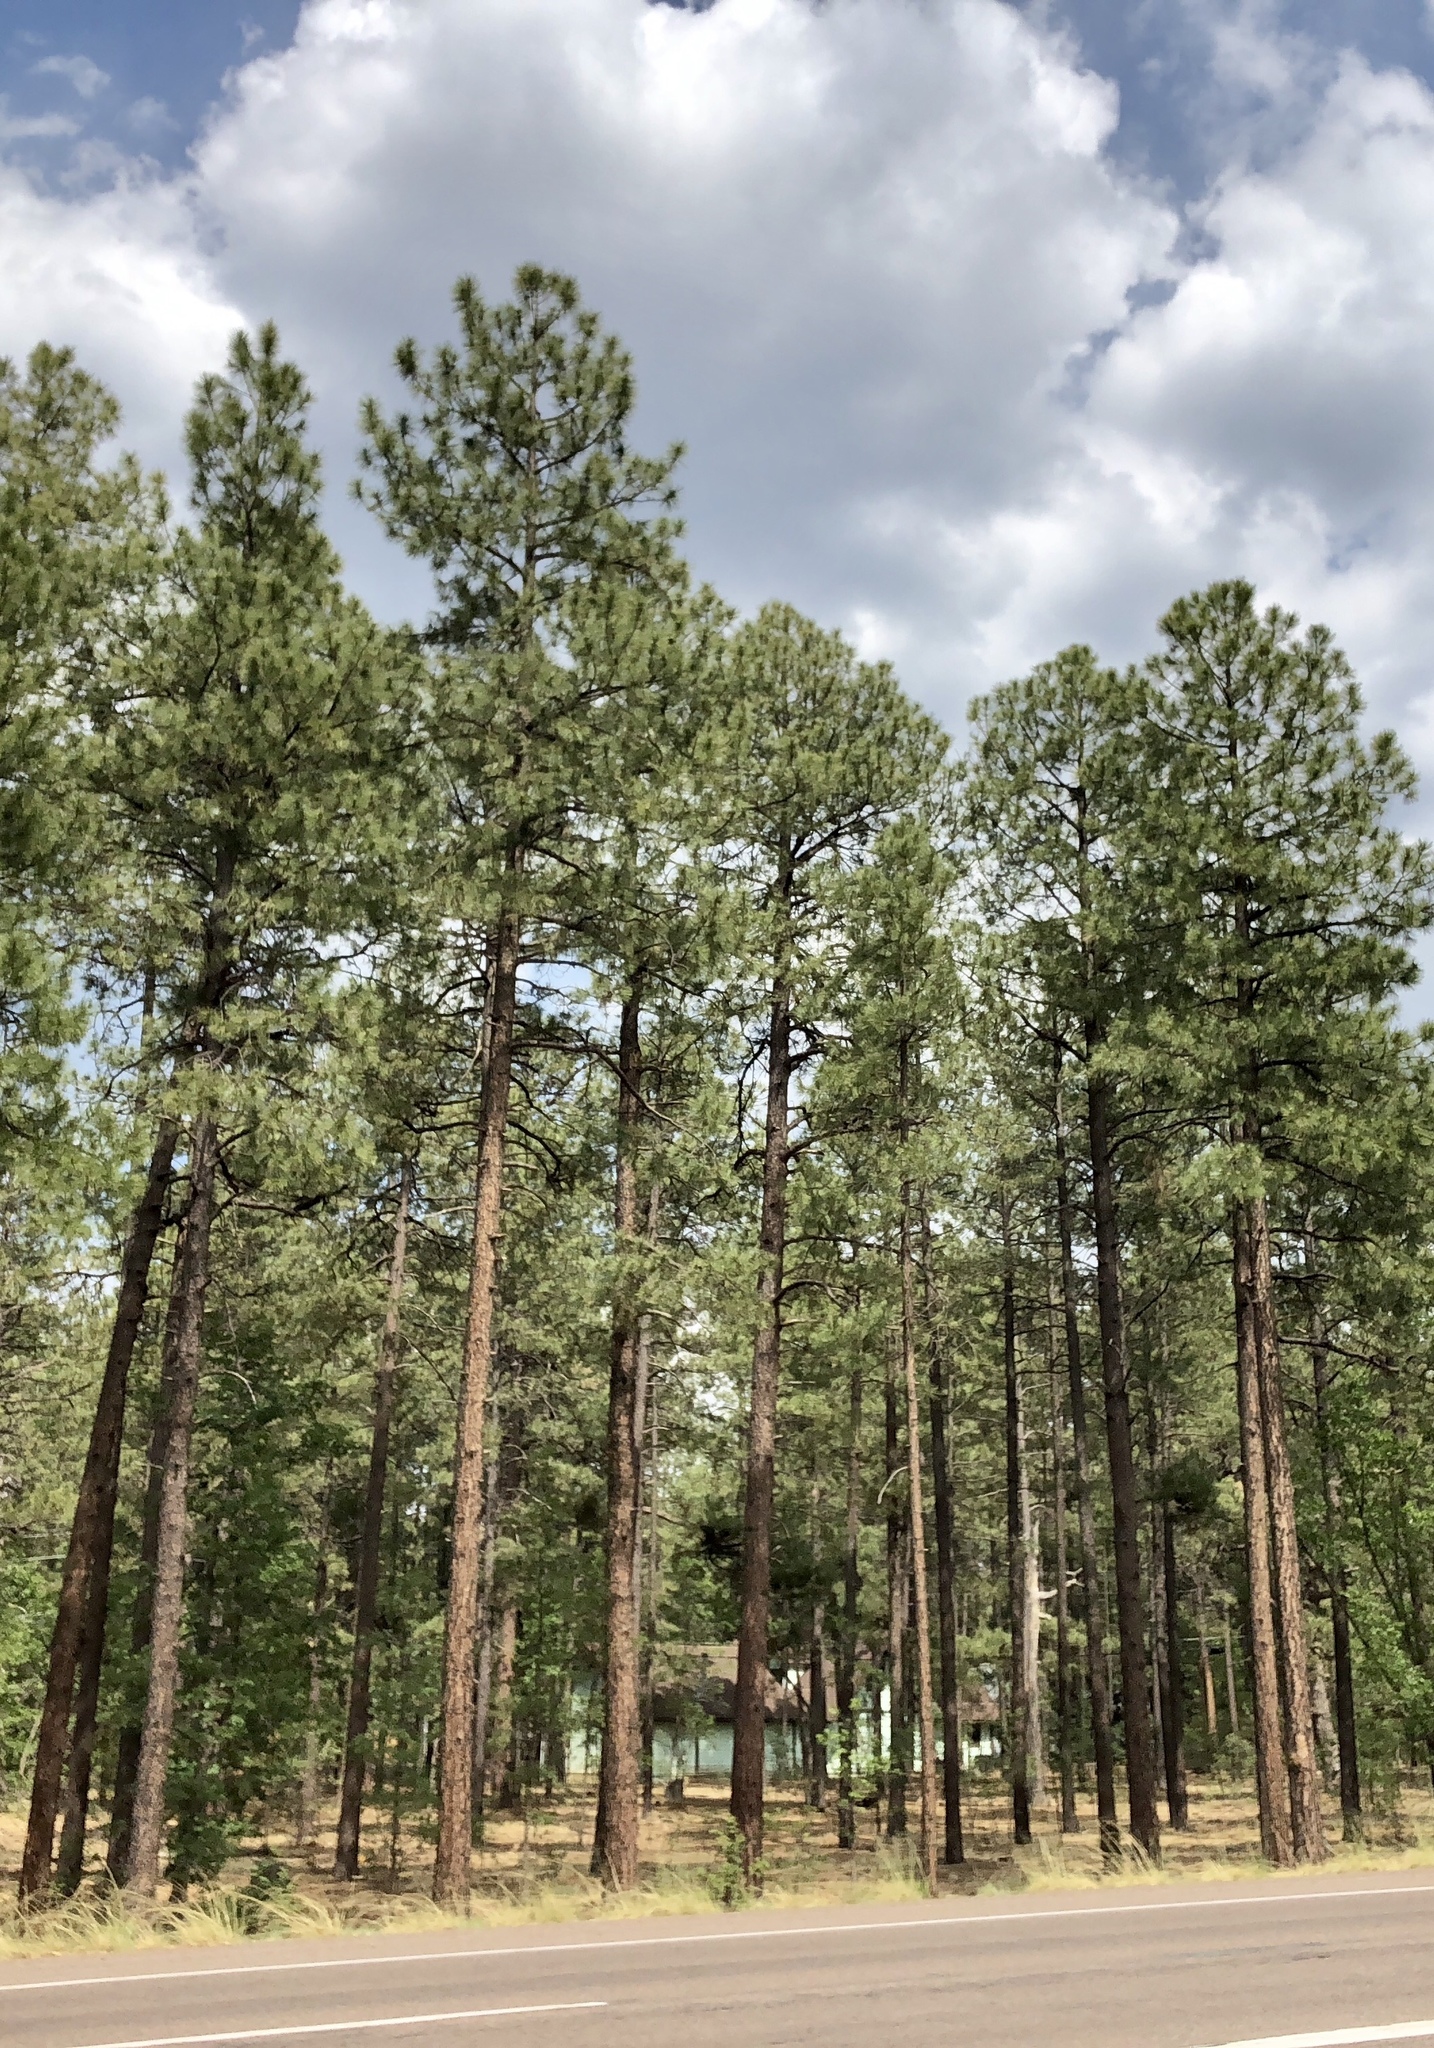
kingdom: Plantae
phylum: Tracheophyta
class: Pinopsida
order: Pinales
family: Pinaceae
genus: Pinus
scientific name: Pinus ponderosa
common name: Western yellow-pine
